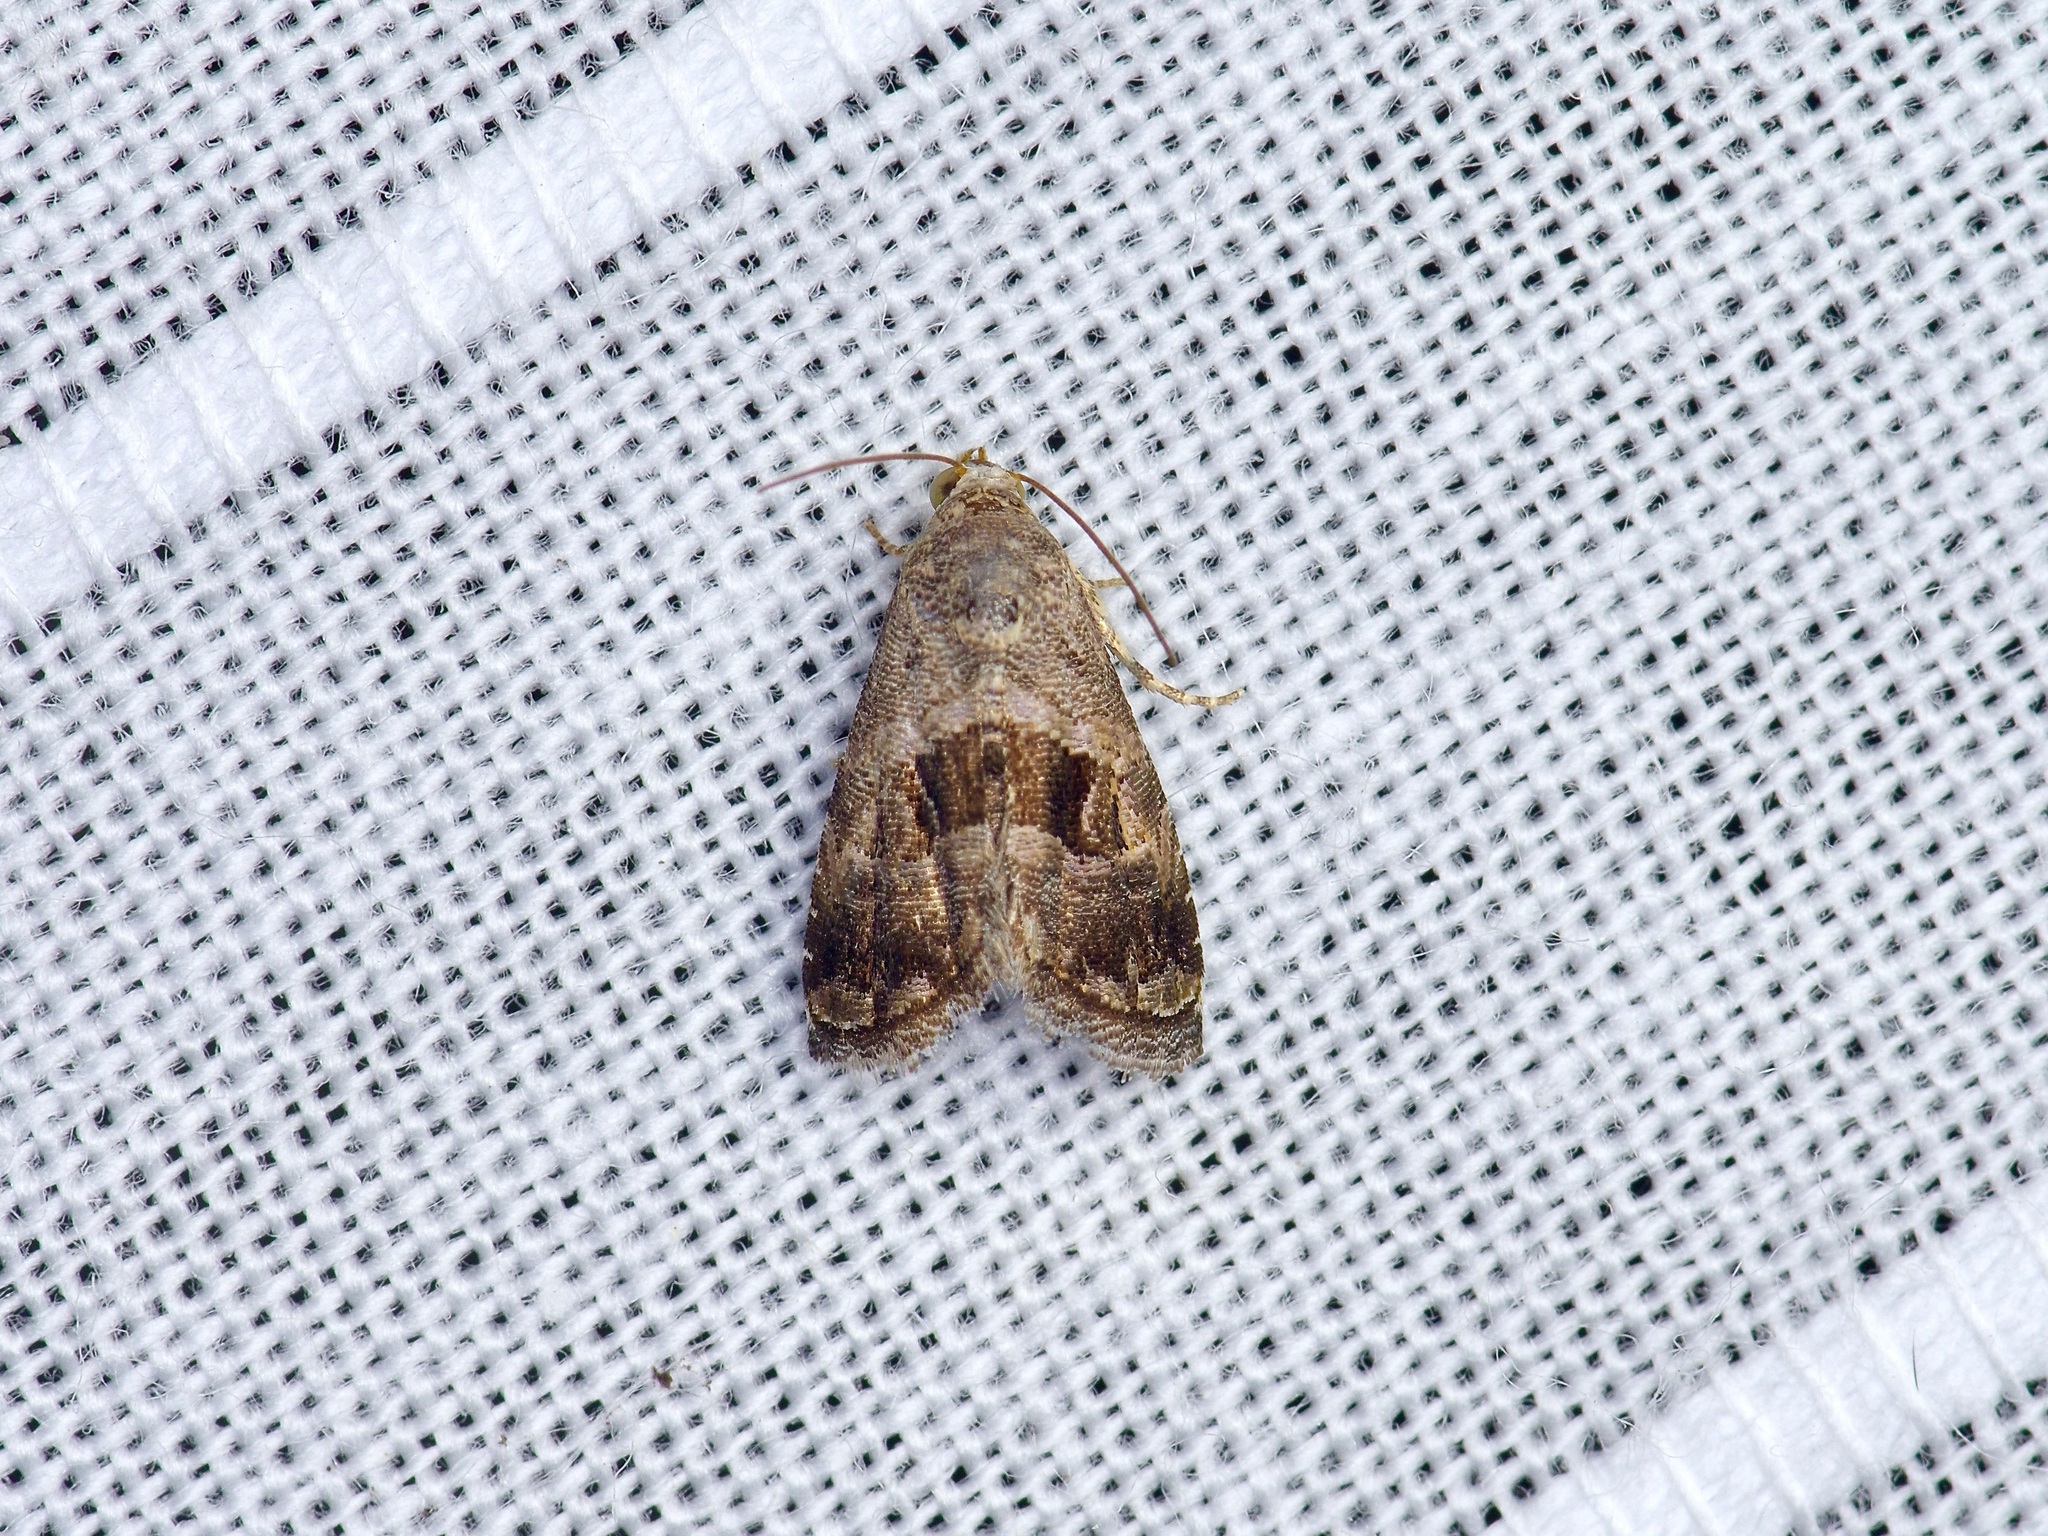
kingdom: Animalia
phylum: Arthropoda
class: Insecta
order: Lepidoptera
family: Noctuidae
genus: Tripudia
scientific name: Tripudia quadrifera
